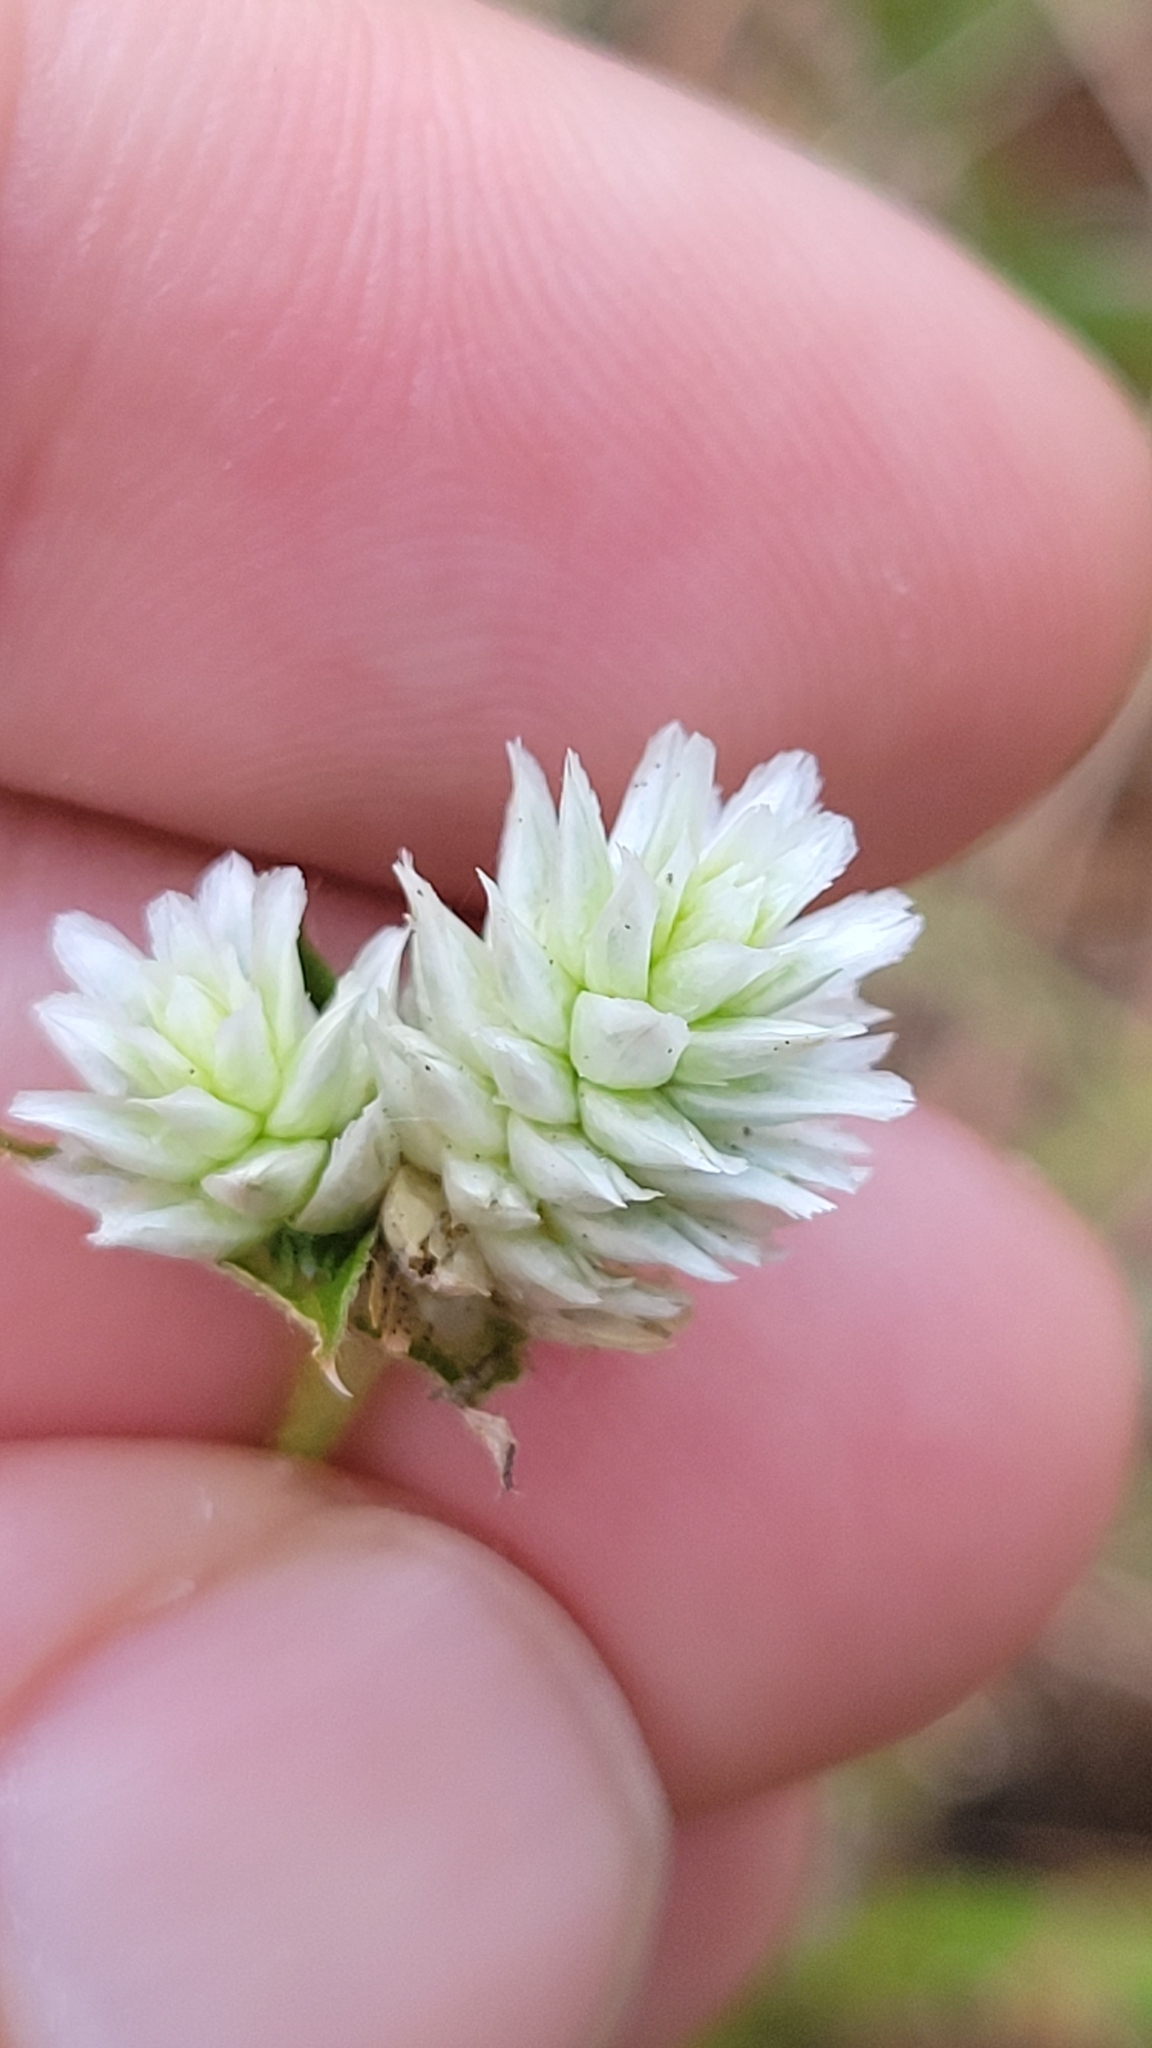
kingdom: Plantae
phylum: Tracheophyta
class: Magnoliopsida
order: Caryophyllales
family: Amaranthaceae
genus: Gomphrena
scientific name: Gomphrena serrata
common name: Arrasa con todo
